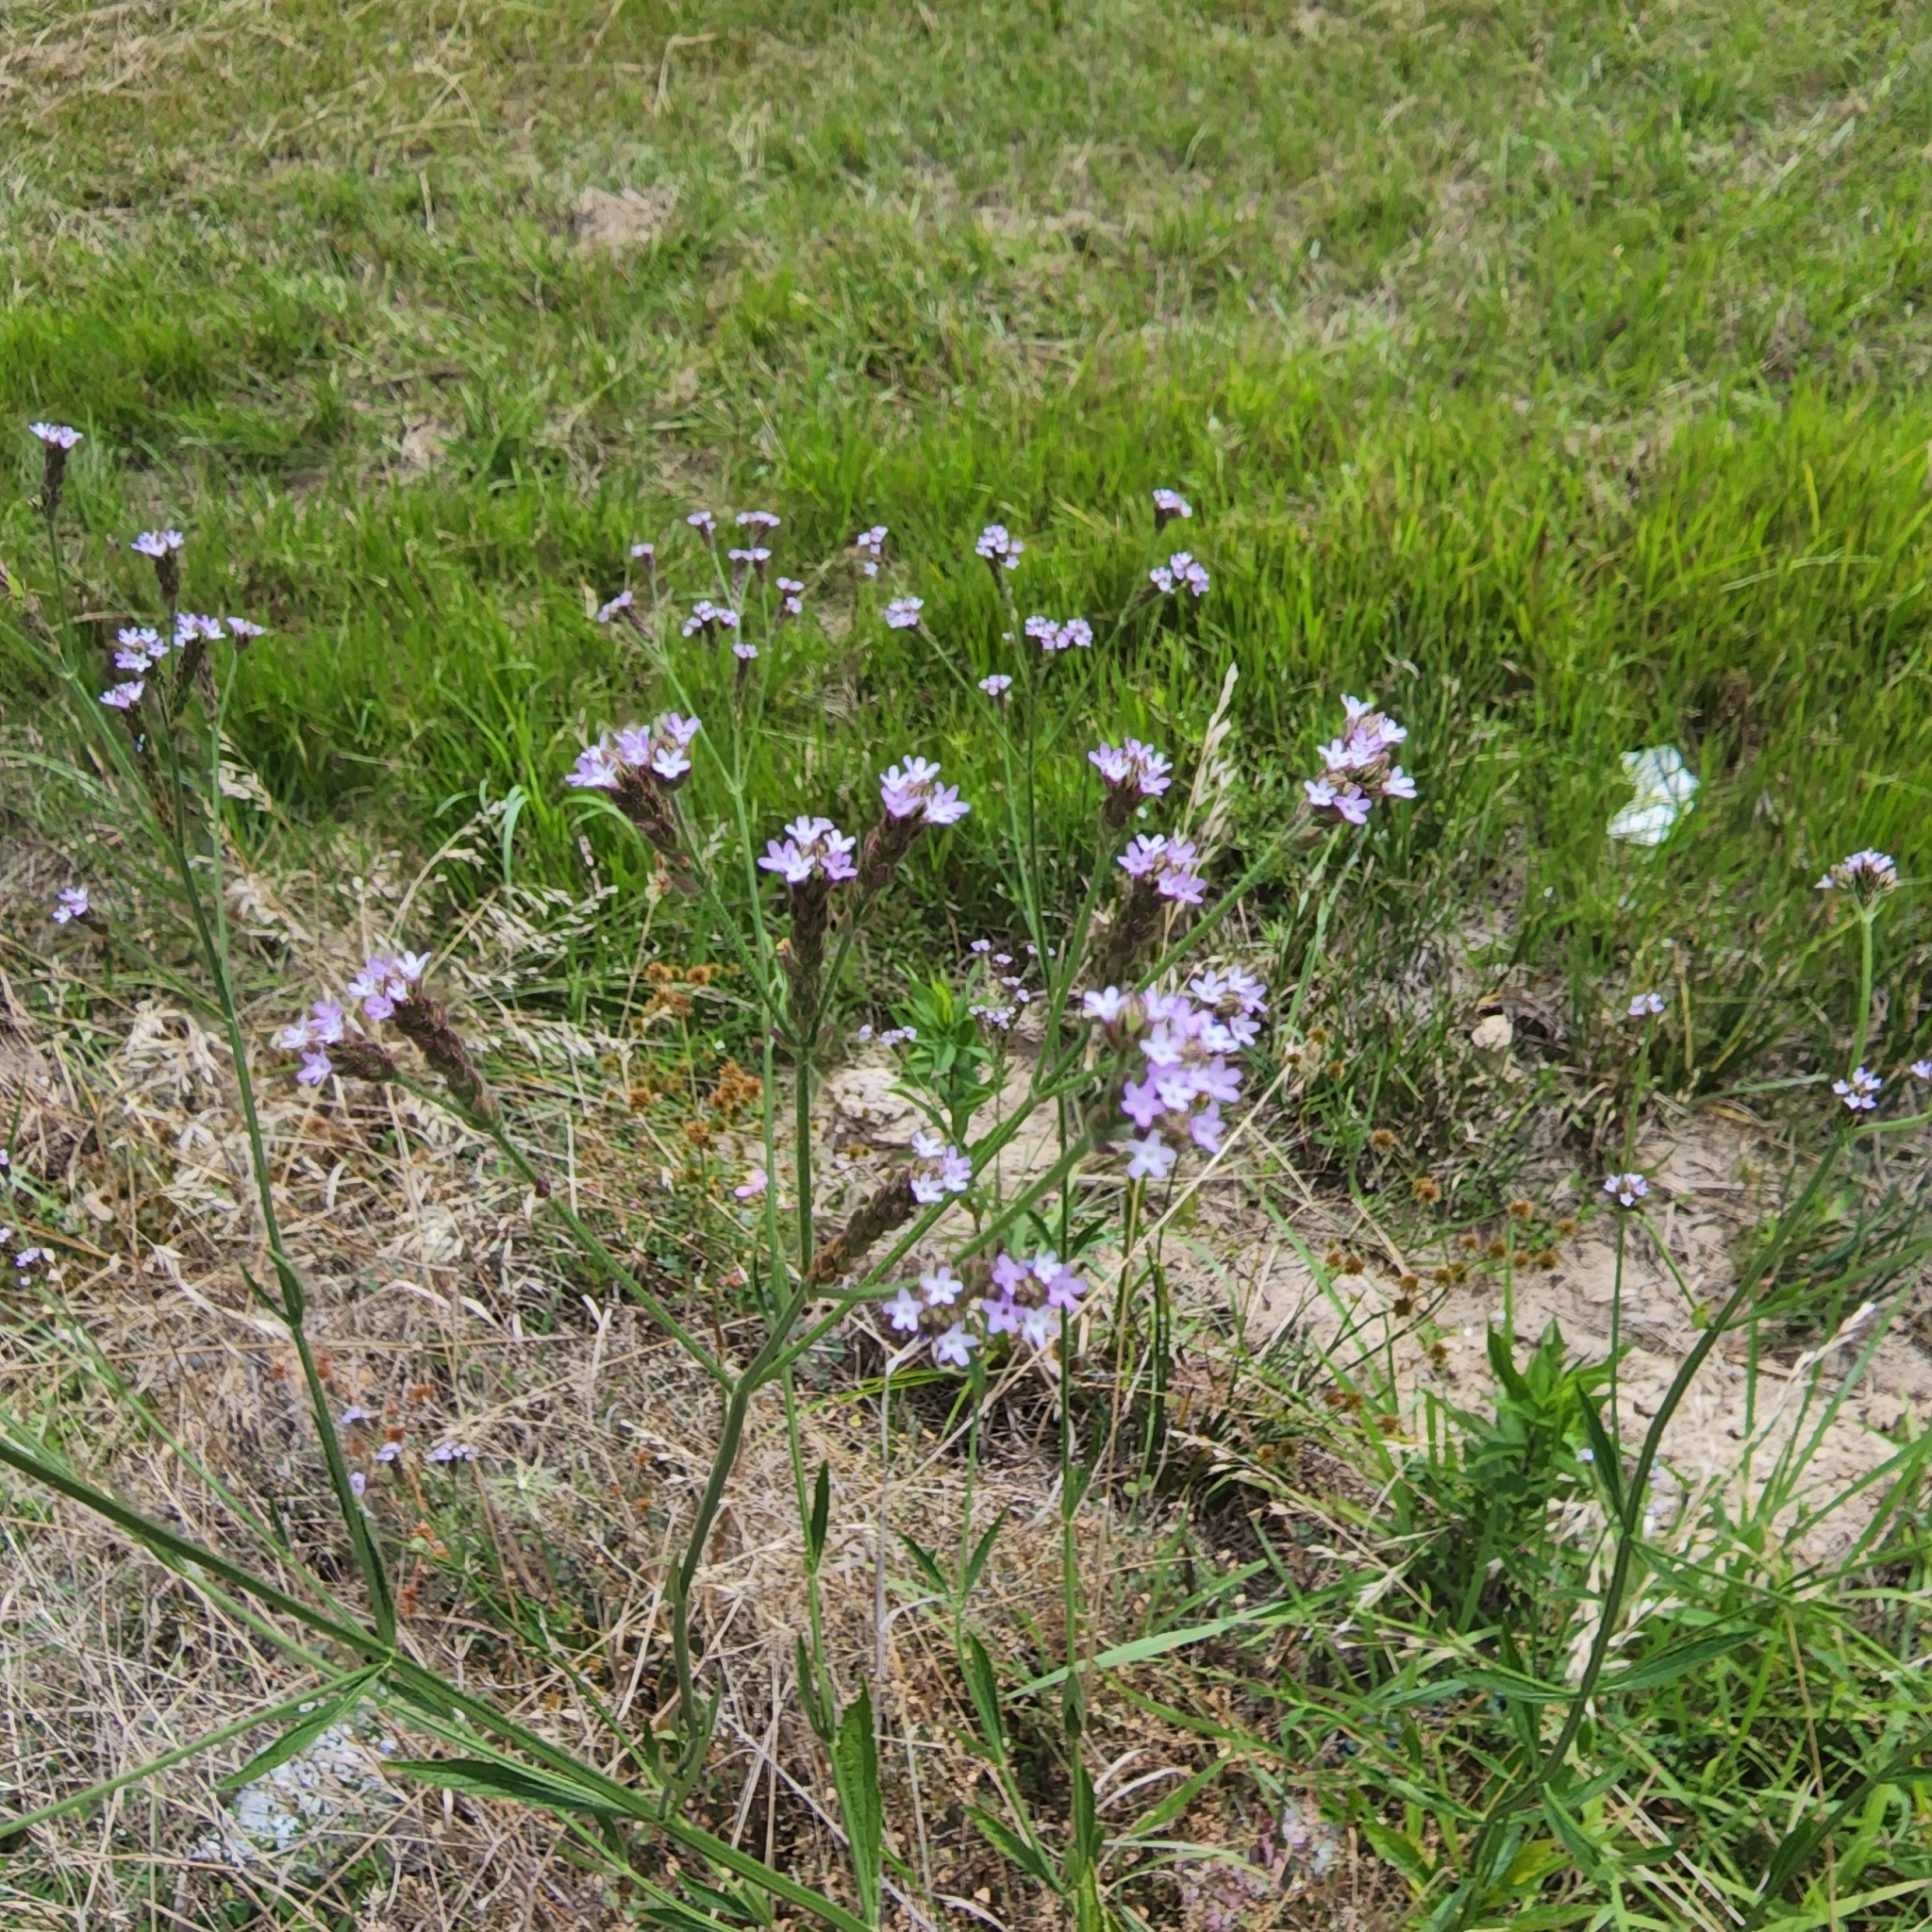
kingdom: Plantae
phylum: Tracheophyta
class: Magnoliopsida
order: Lamiales
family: Verbenaceae
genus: Verbena
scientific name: Verbena brasiliensis
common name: Brazilian vervain
